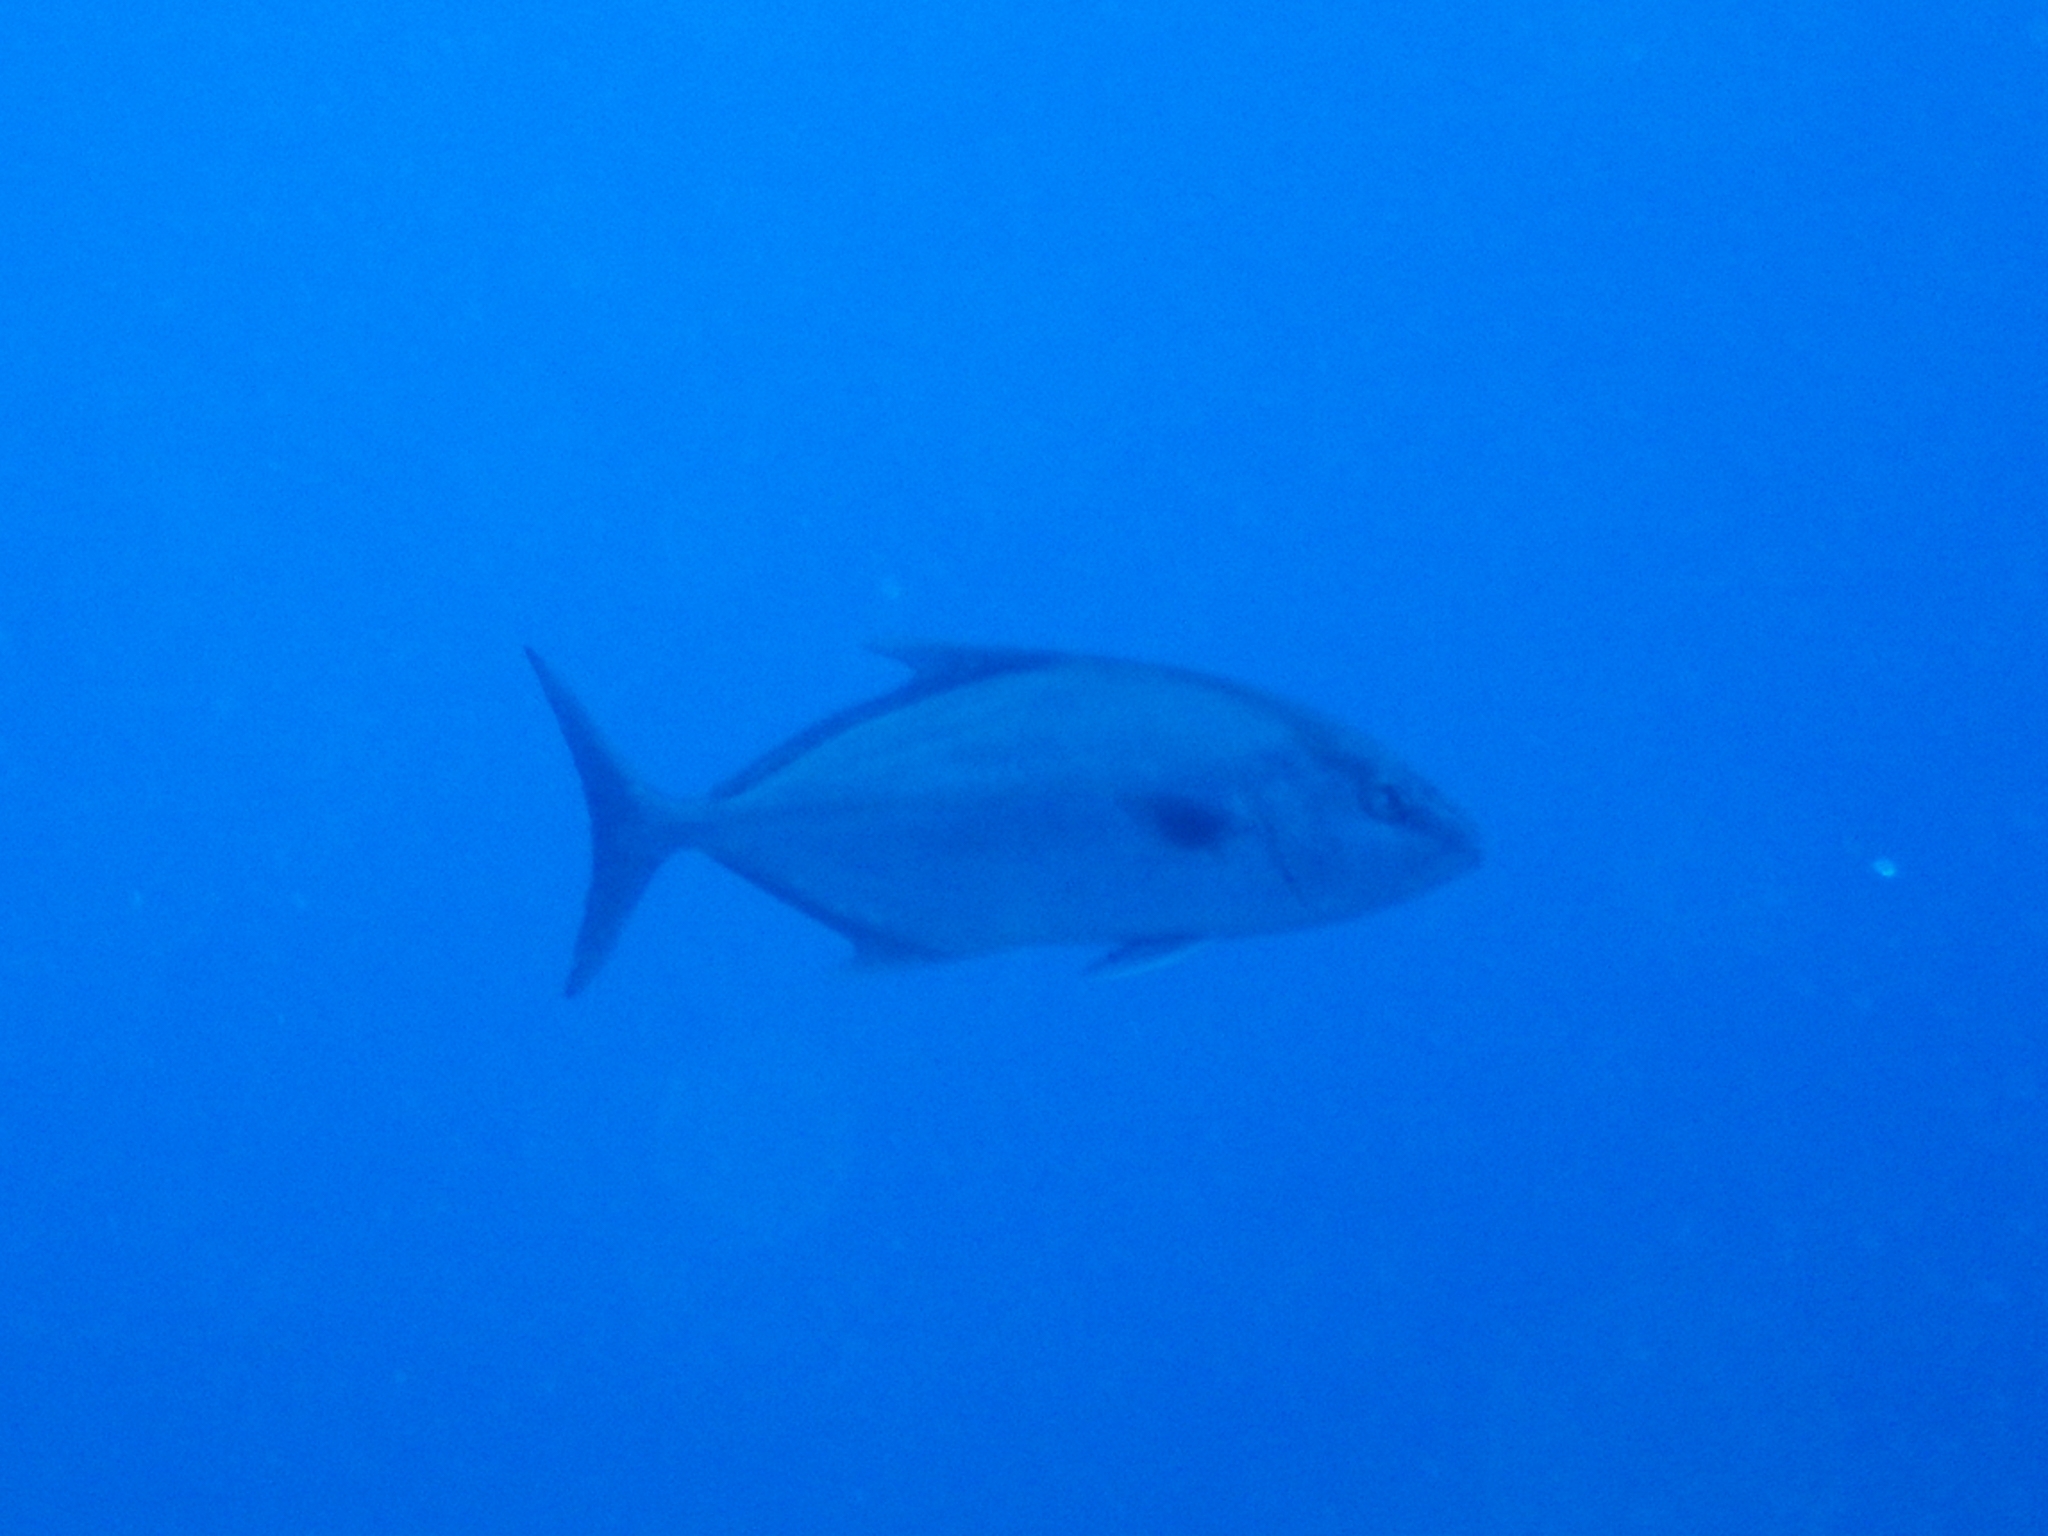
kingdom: Animalia
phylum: Chordata
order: Perciformes
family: Carangidae
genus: Seriola
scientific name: Seriola rivoliana
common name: Almaco jack
